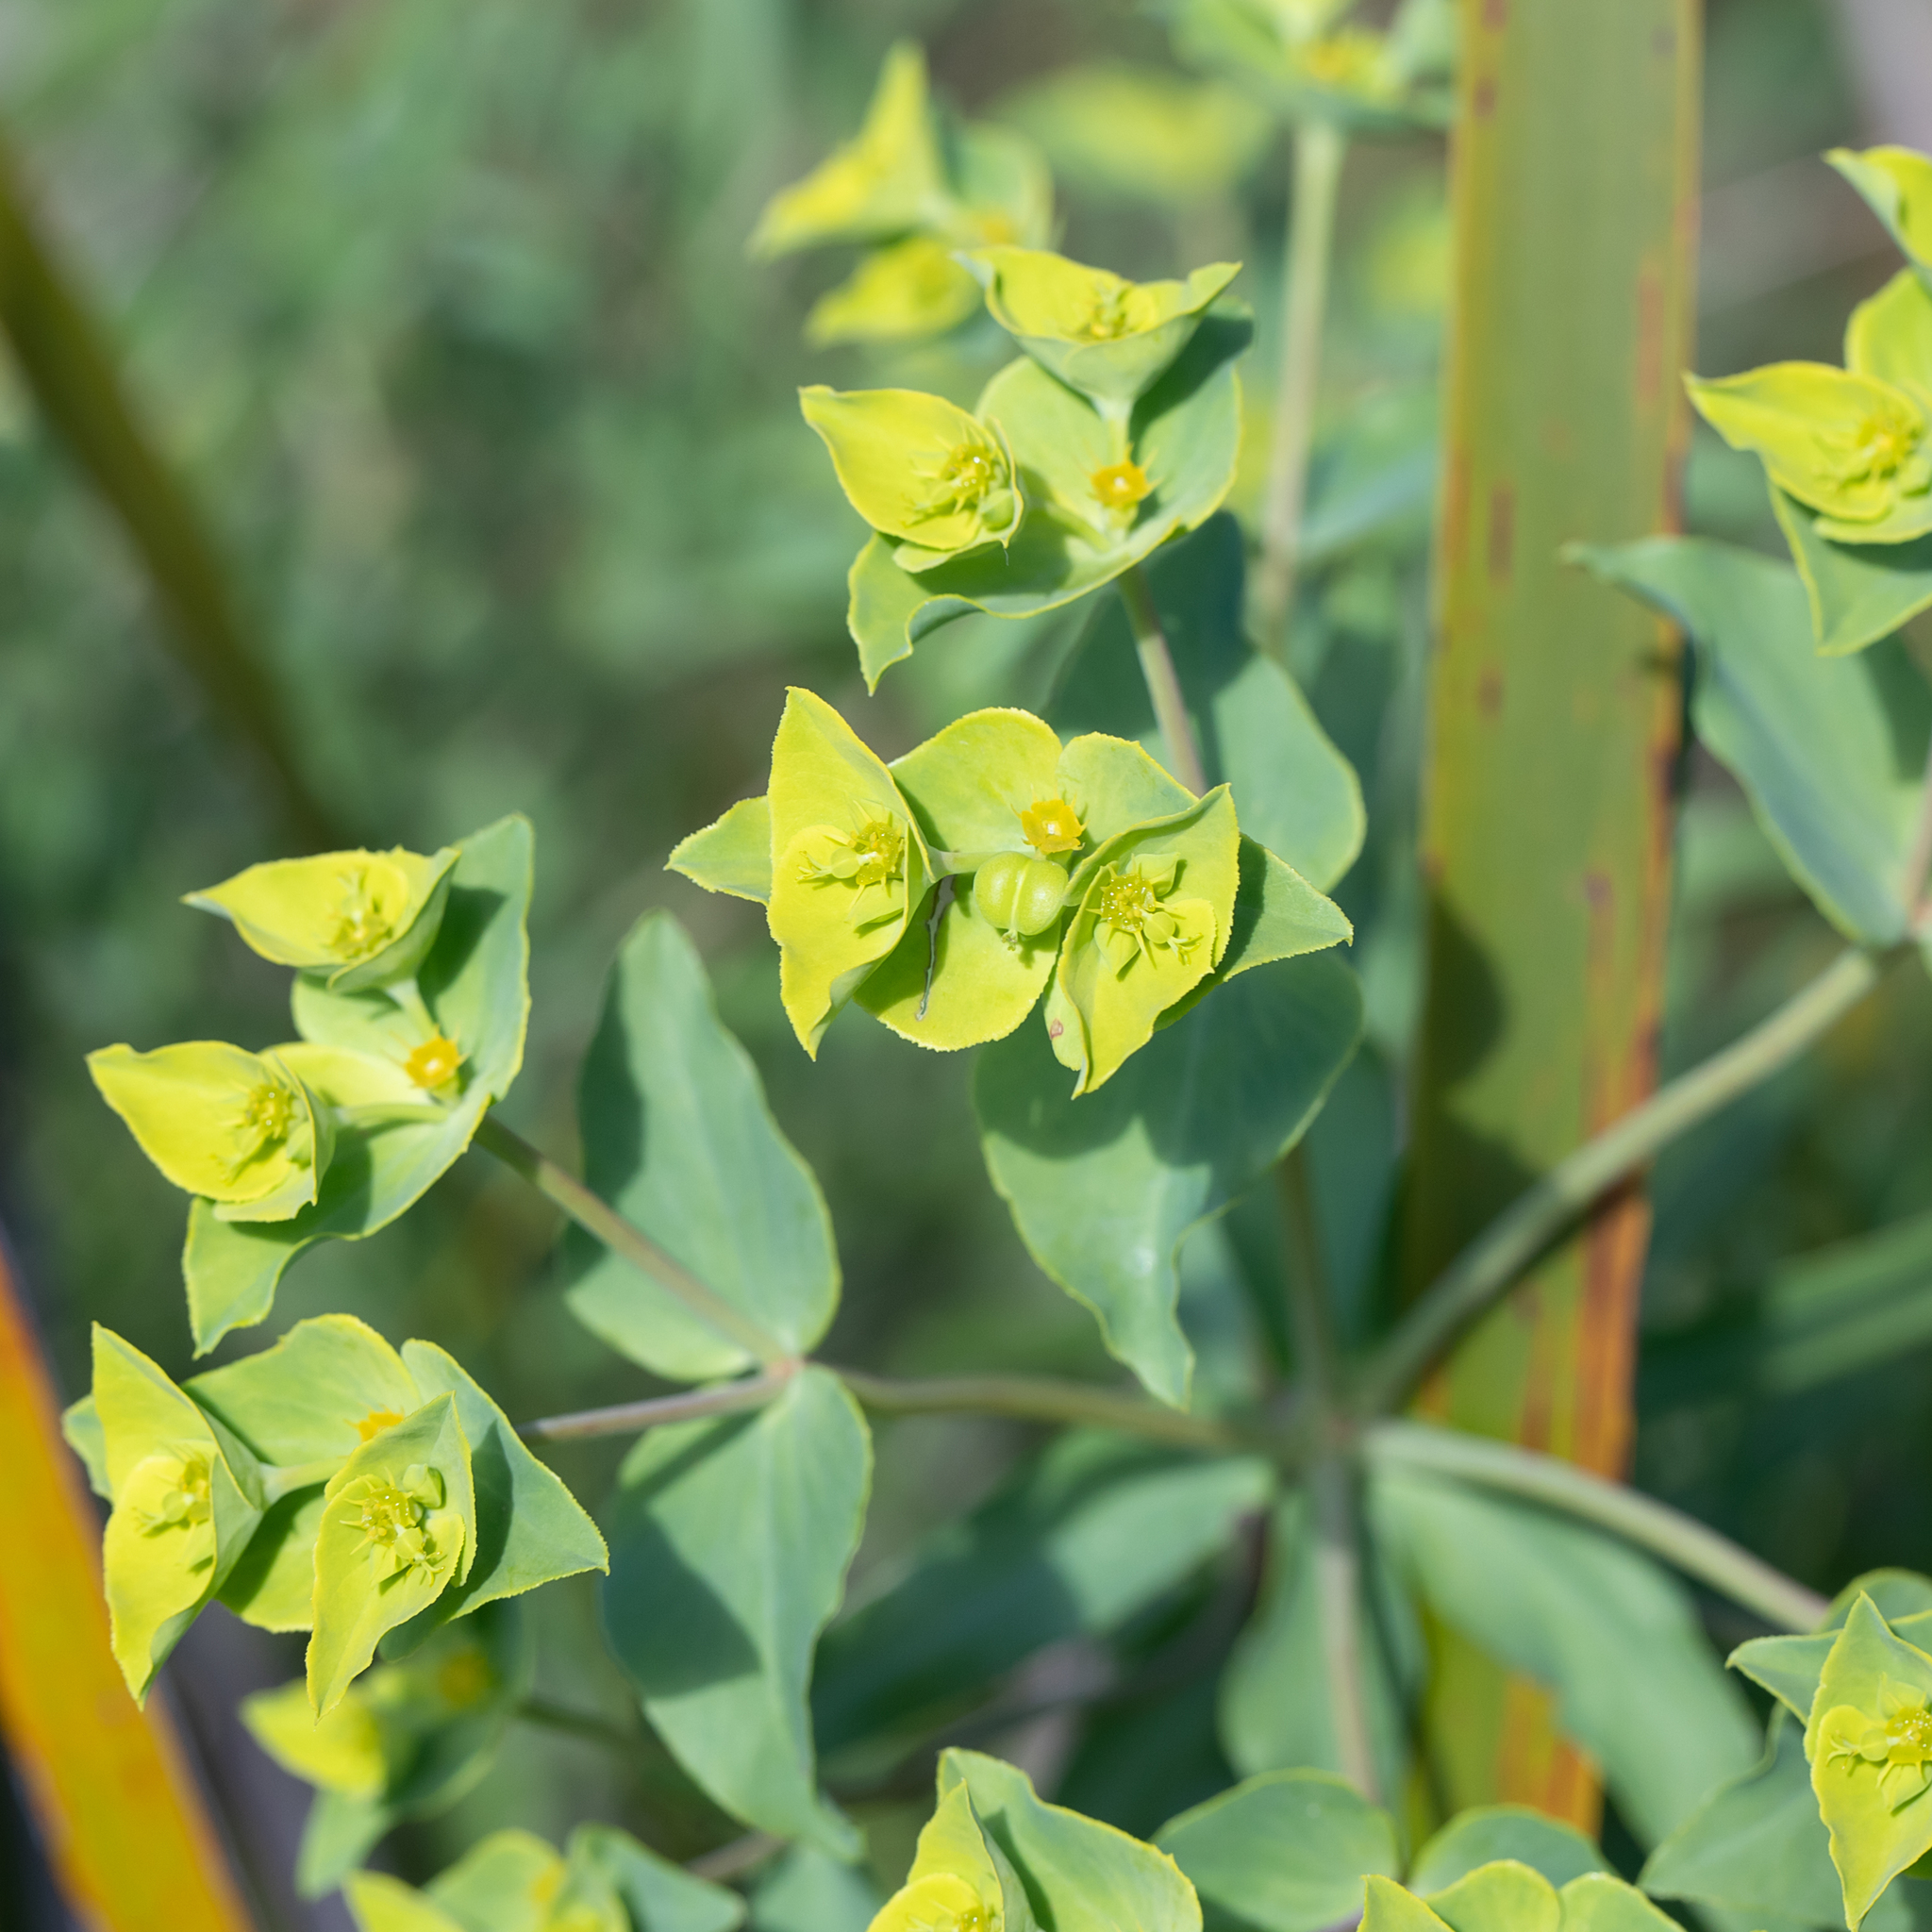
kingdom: Plantae
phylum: Tracheophyta
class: Magnoliopsida
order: Malpighiales
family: Euphorbiaceae
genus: Euphorbia
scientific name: Euphorbia terracina
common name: Geraldton carnation weed
